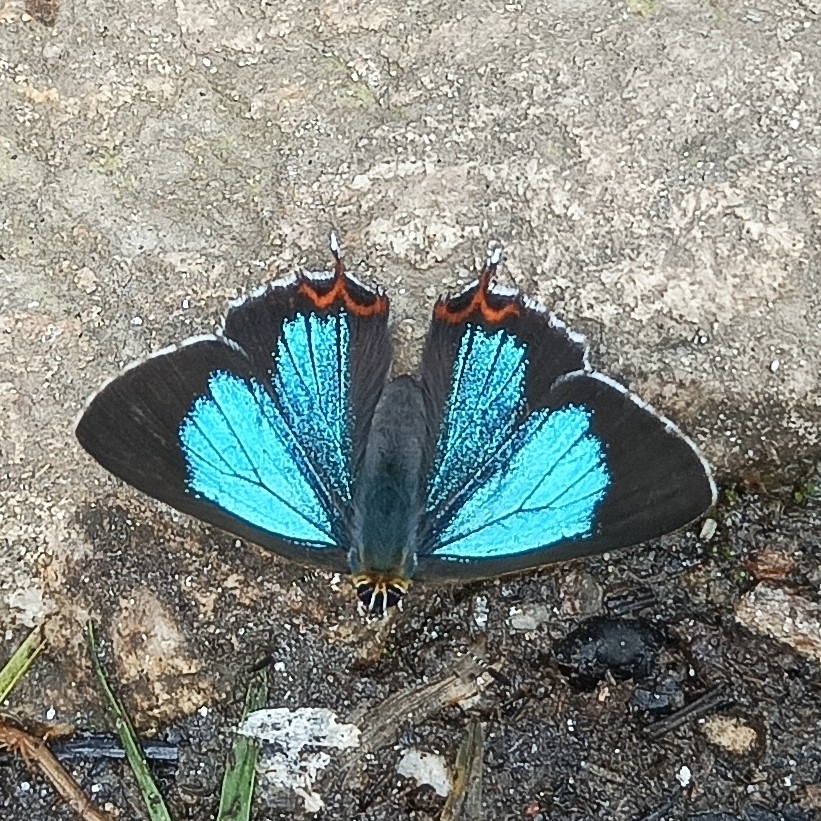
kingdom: Animalia
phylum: Arthropoda
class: Insecta
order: Lepidoptera
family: Lycaenidae
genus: Heliophorus
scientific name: Heliophorus
